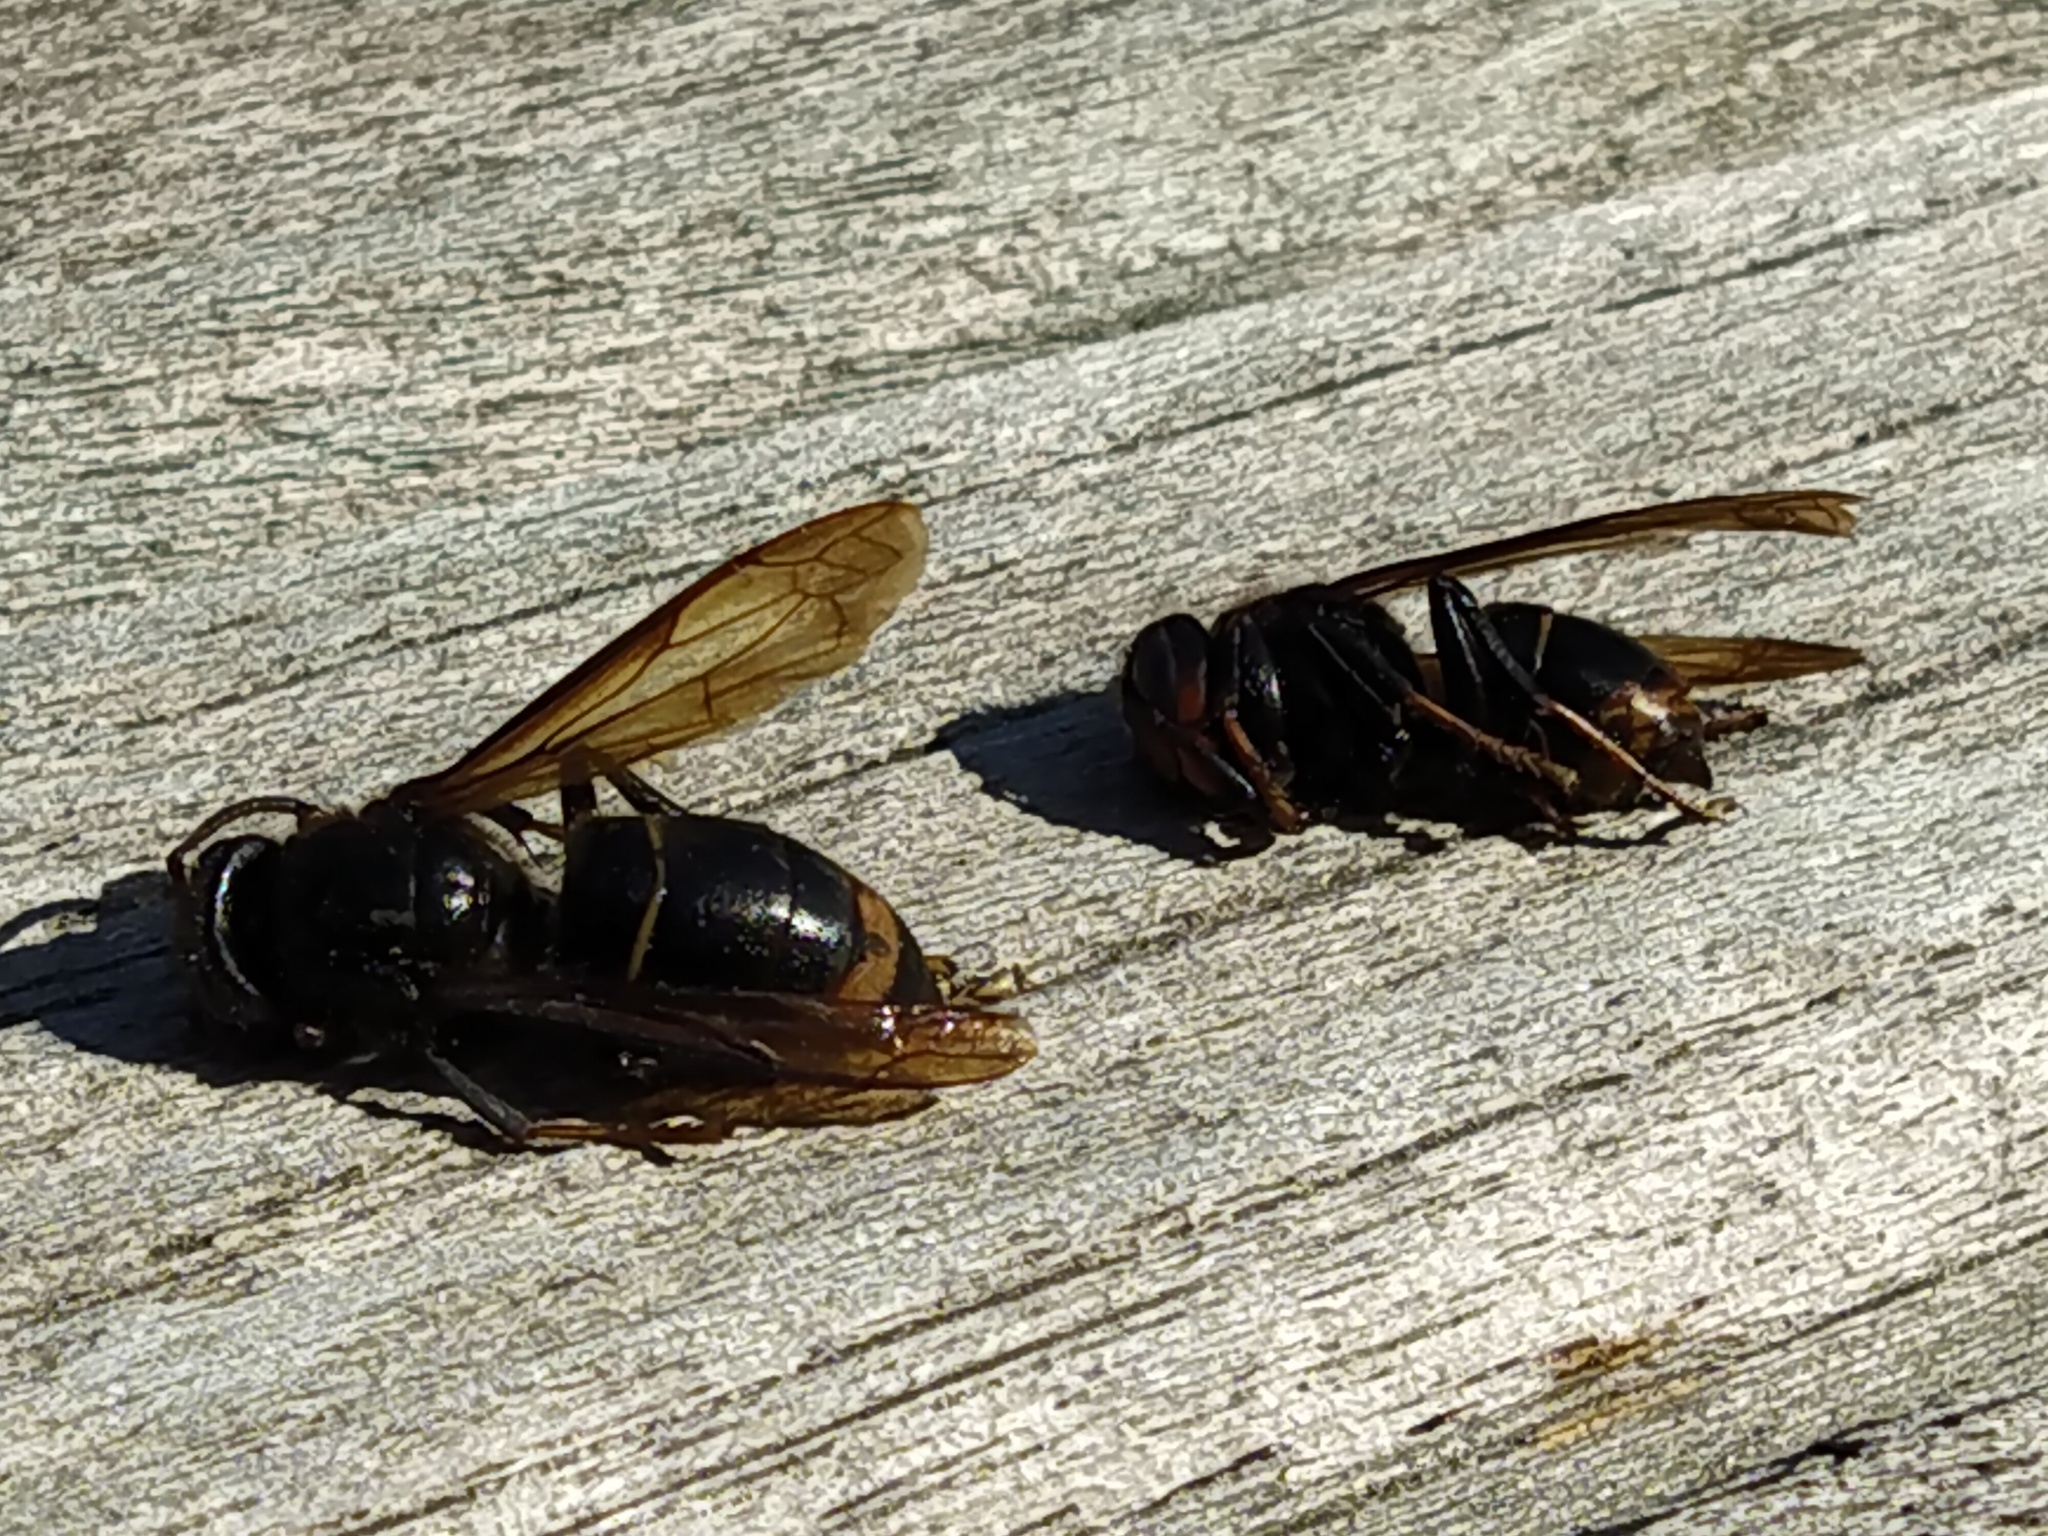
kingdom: Animalia
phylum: Arthropoda
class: Insecta
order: Hymenoptera
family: Vespidae
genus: Vespa
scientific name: Vespa velutina
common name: Asian hornet
